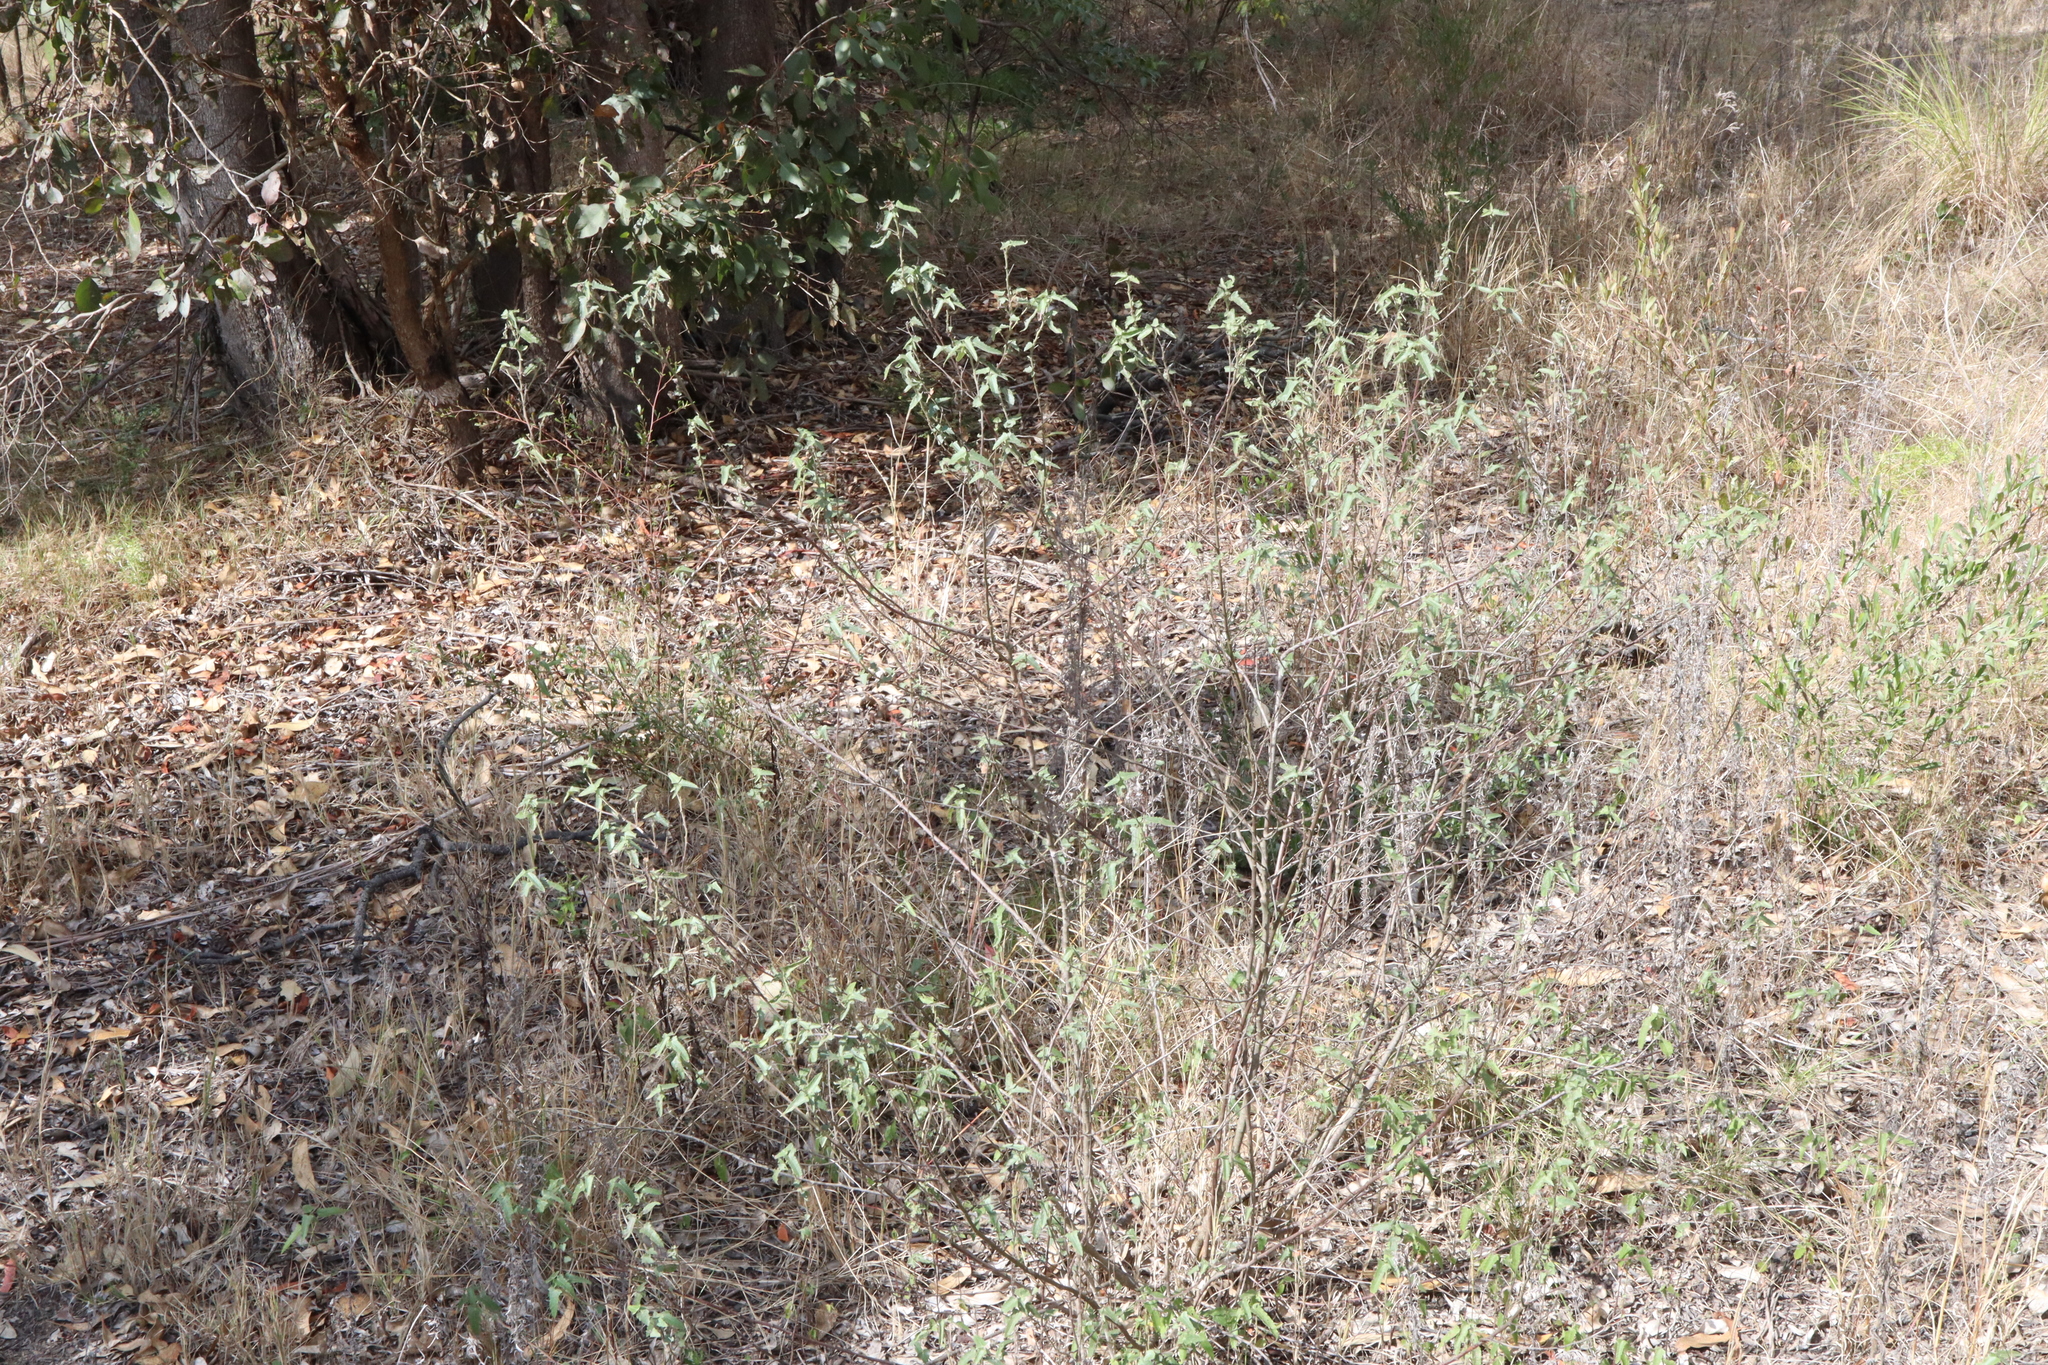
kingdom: Plantae
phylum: Tracheophyta
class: Magnoliopsida
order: Malvales
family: Malvaceae
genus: Pavonia
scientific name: Pavonia hastata
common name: Spearleaf swampmallow
